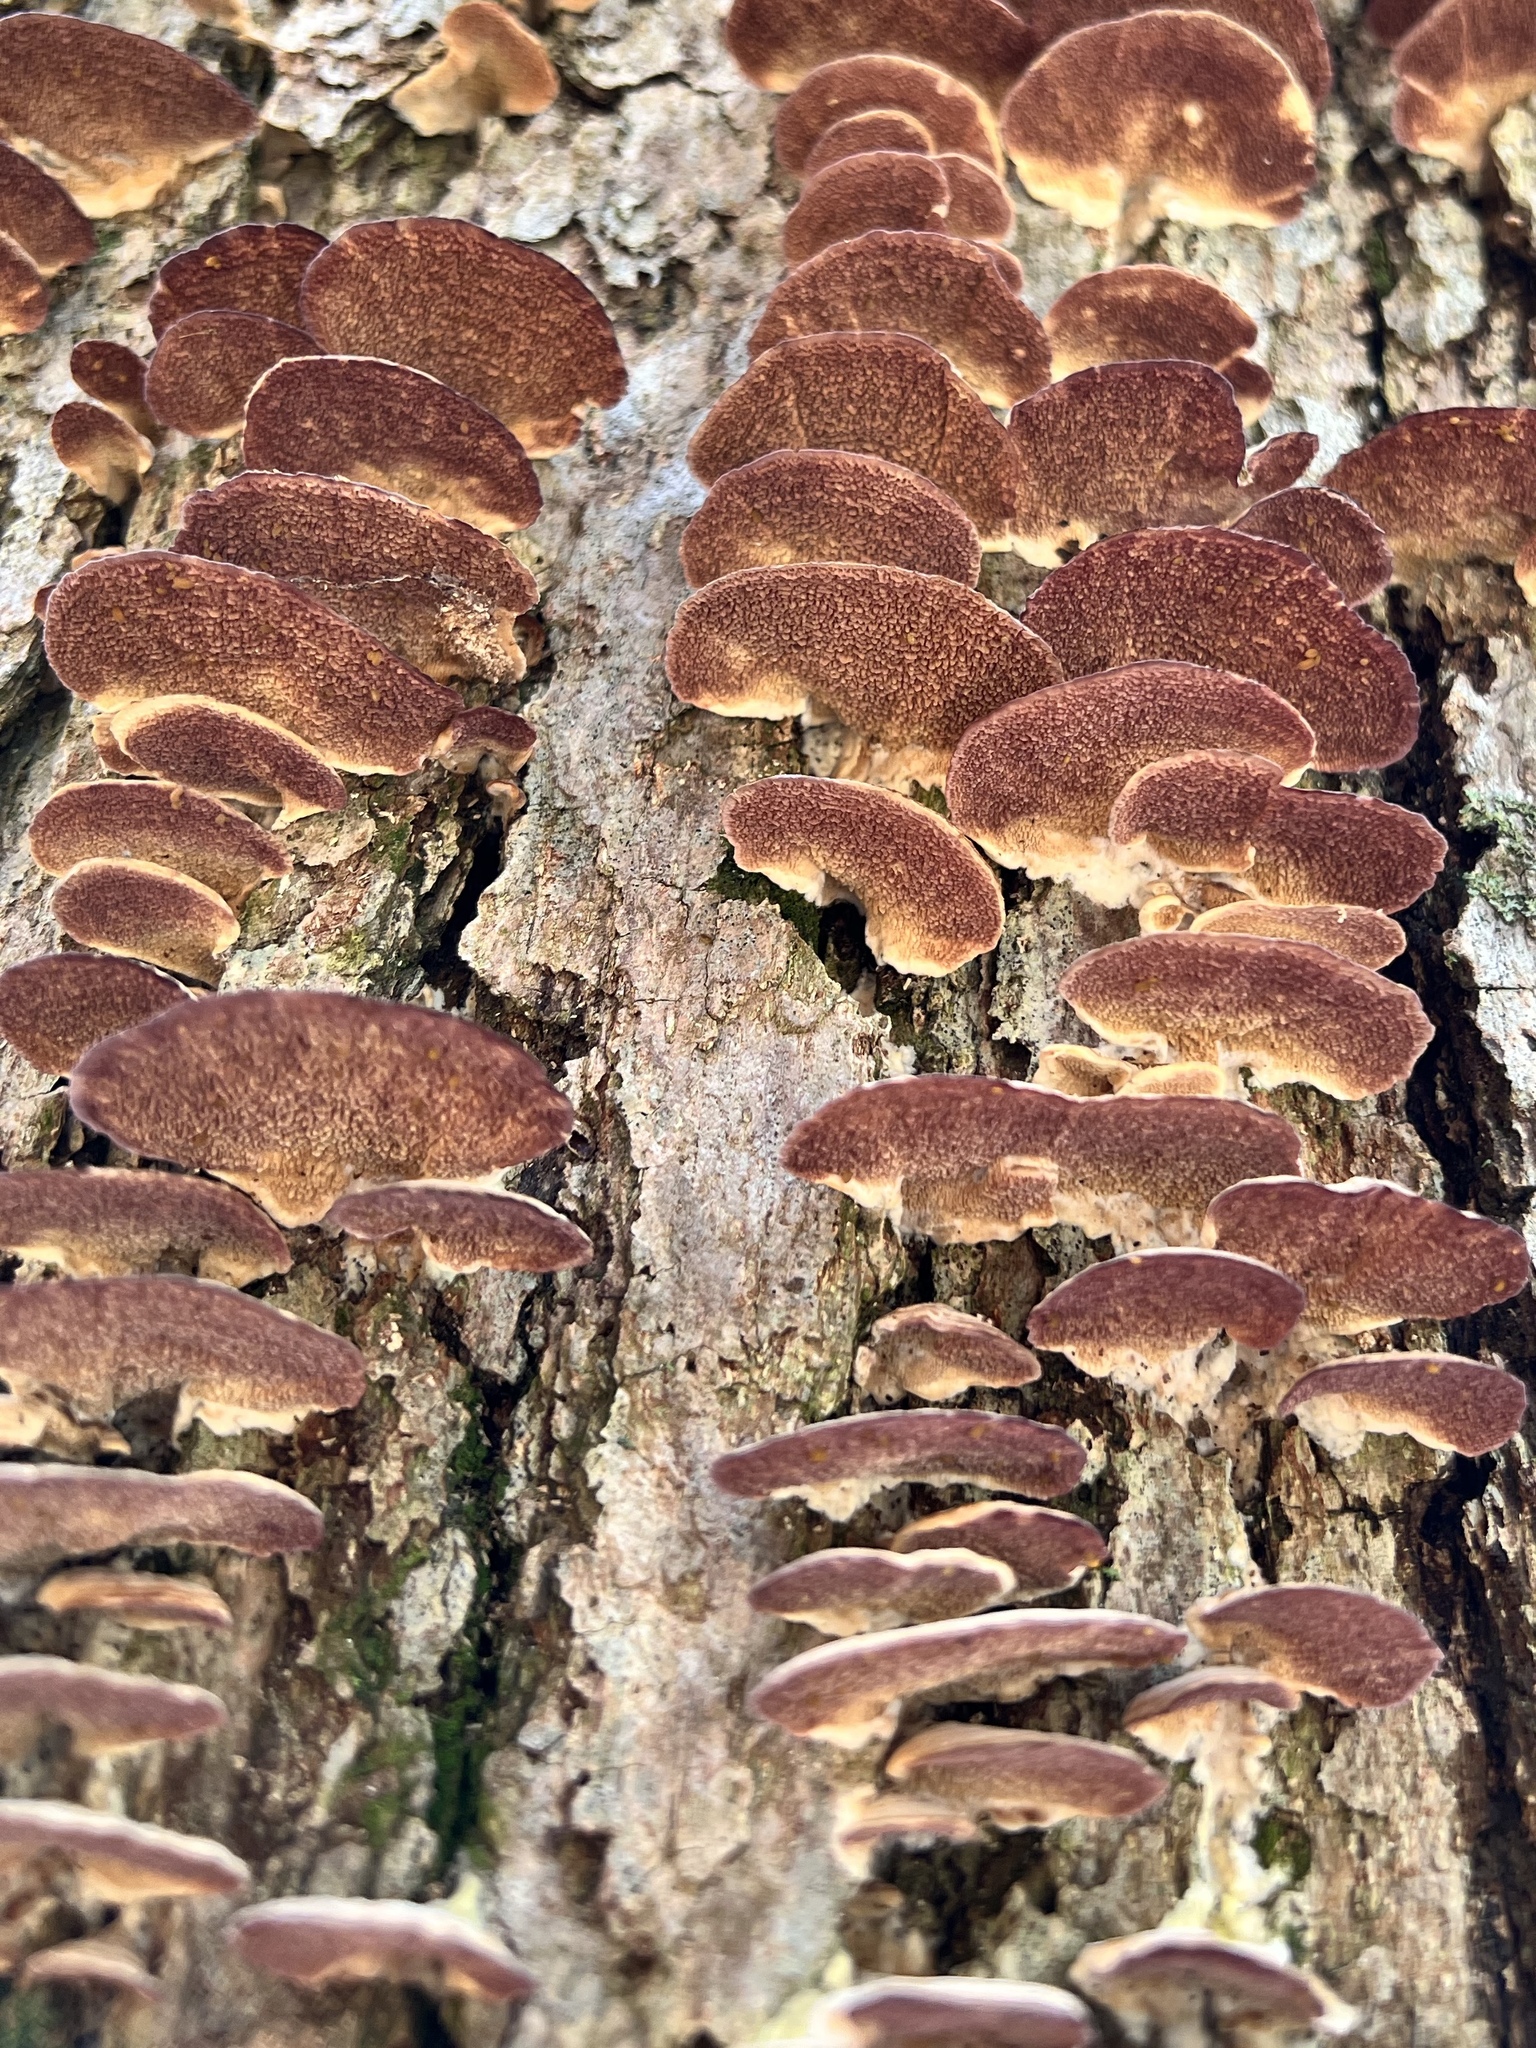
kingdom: Fungi
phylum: Basidiomycota
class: Agaricomycetes
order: Hymenochaetales
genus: Trichaptum
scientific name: Trichaptum biforme
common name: Violet-toothed polypore
